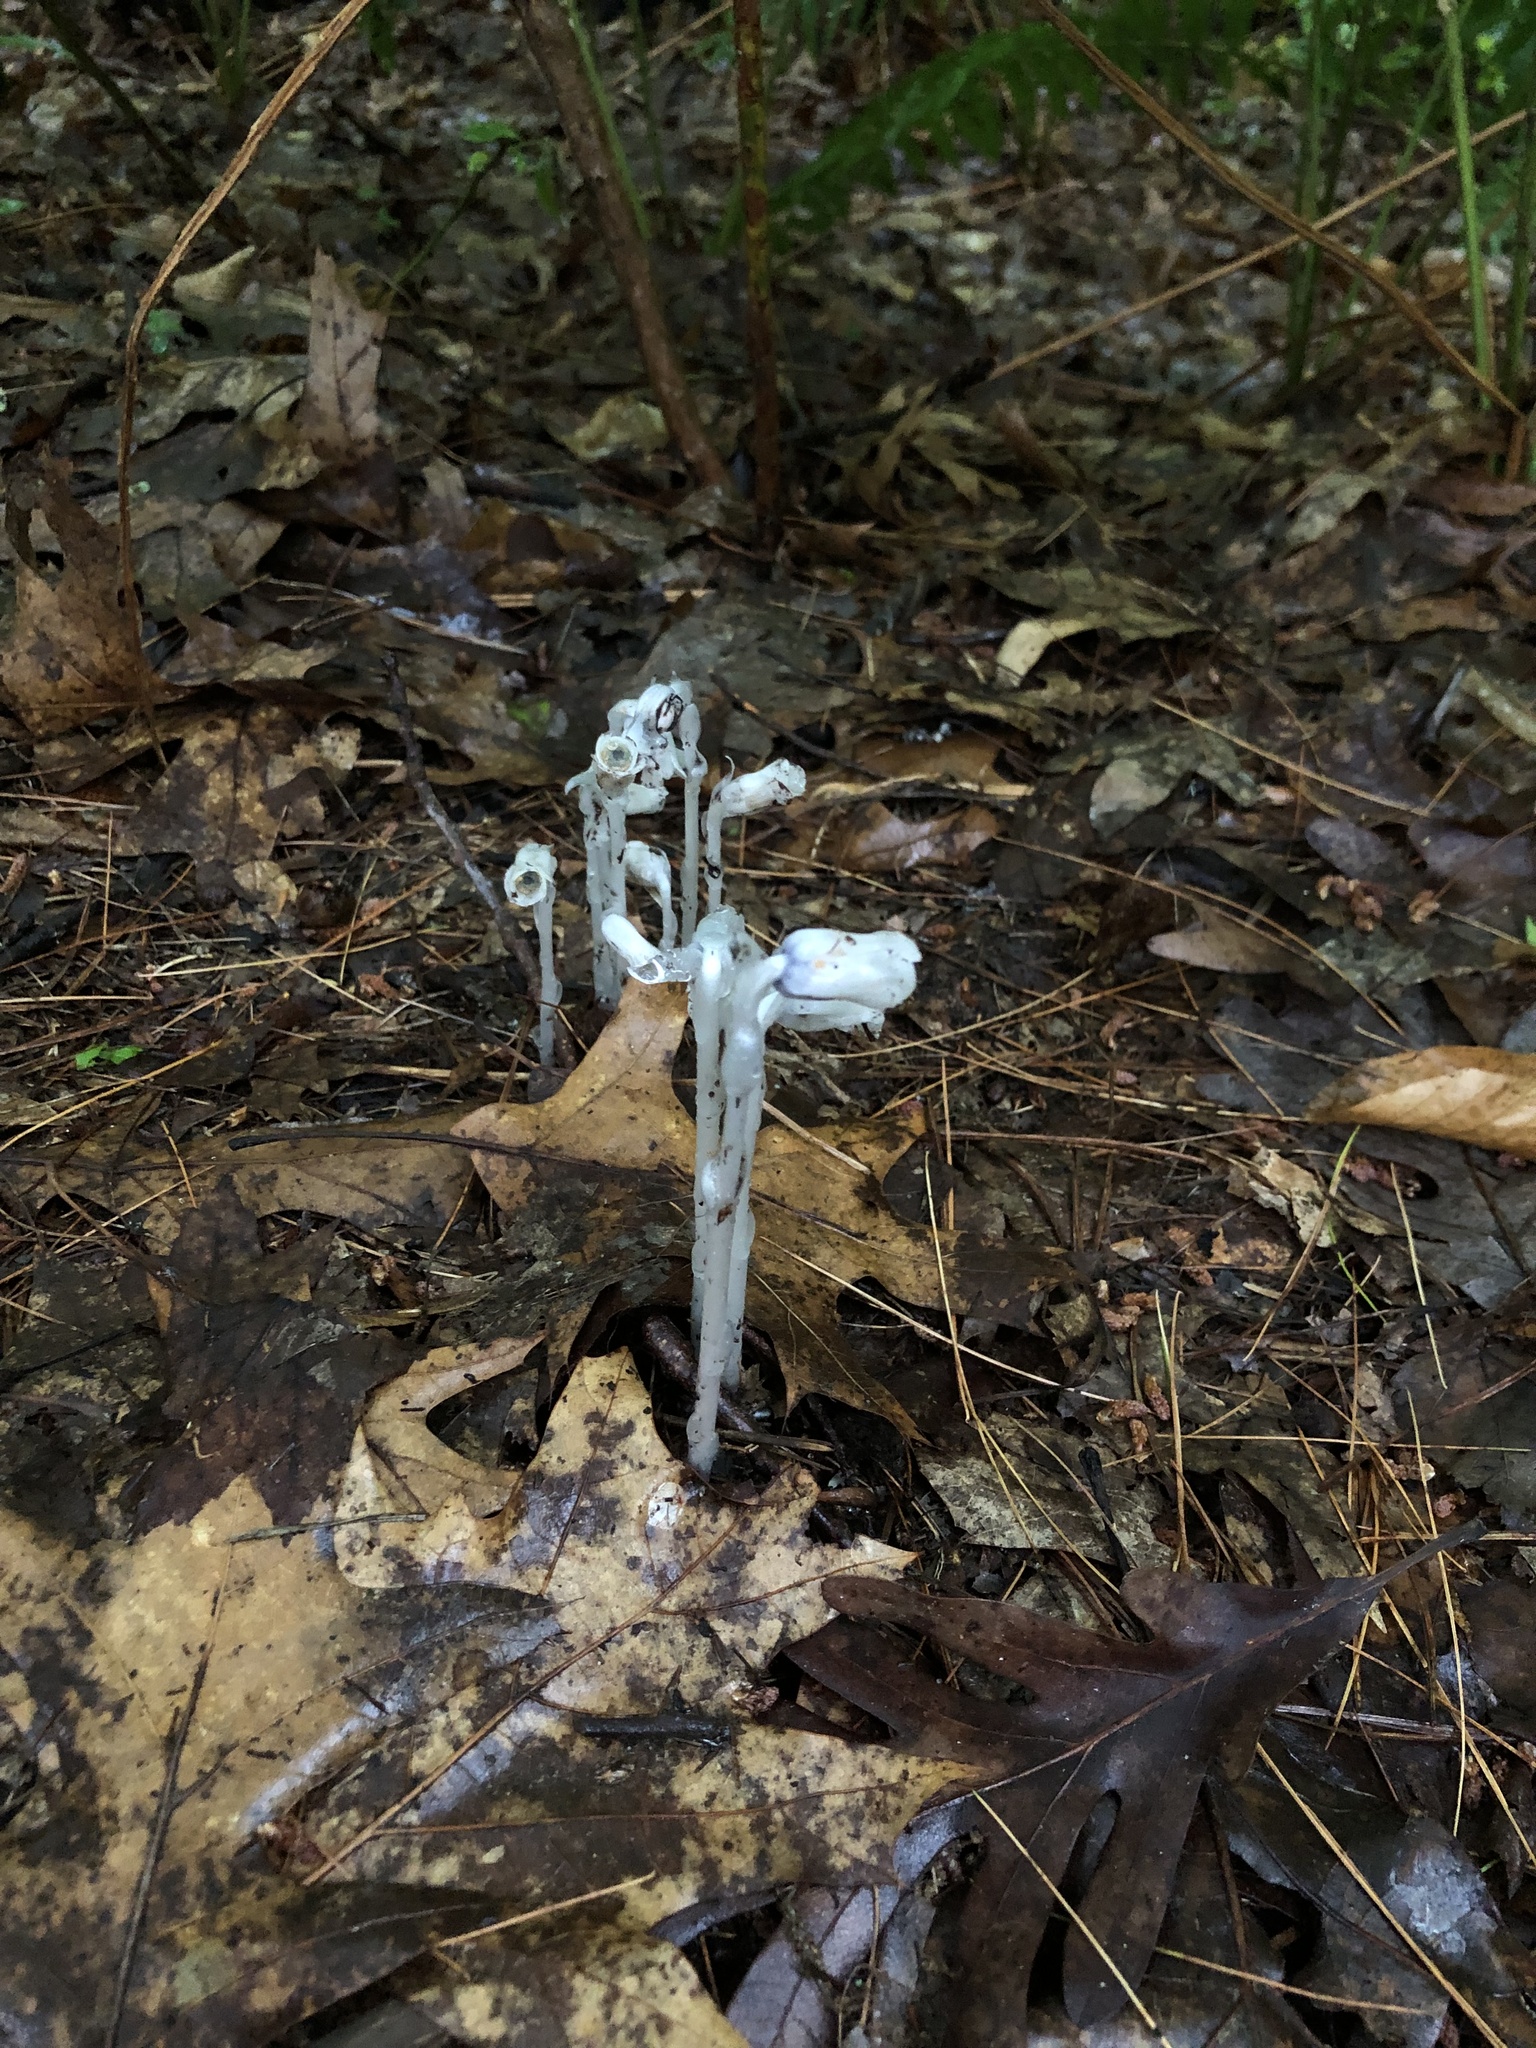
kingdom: Plantae
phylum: Tracheophyta
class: Magnoliopsida
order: Ericales
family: Ericaceae
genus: Monotropa
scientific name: Monotropa uniflora
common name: Convulsion root
